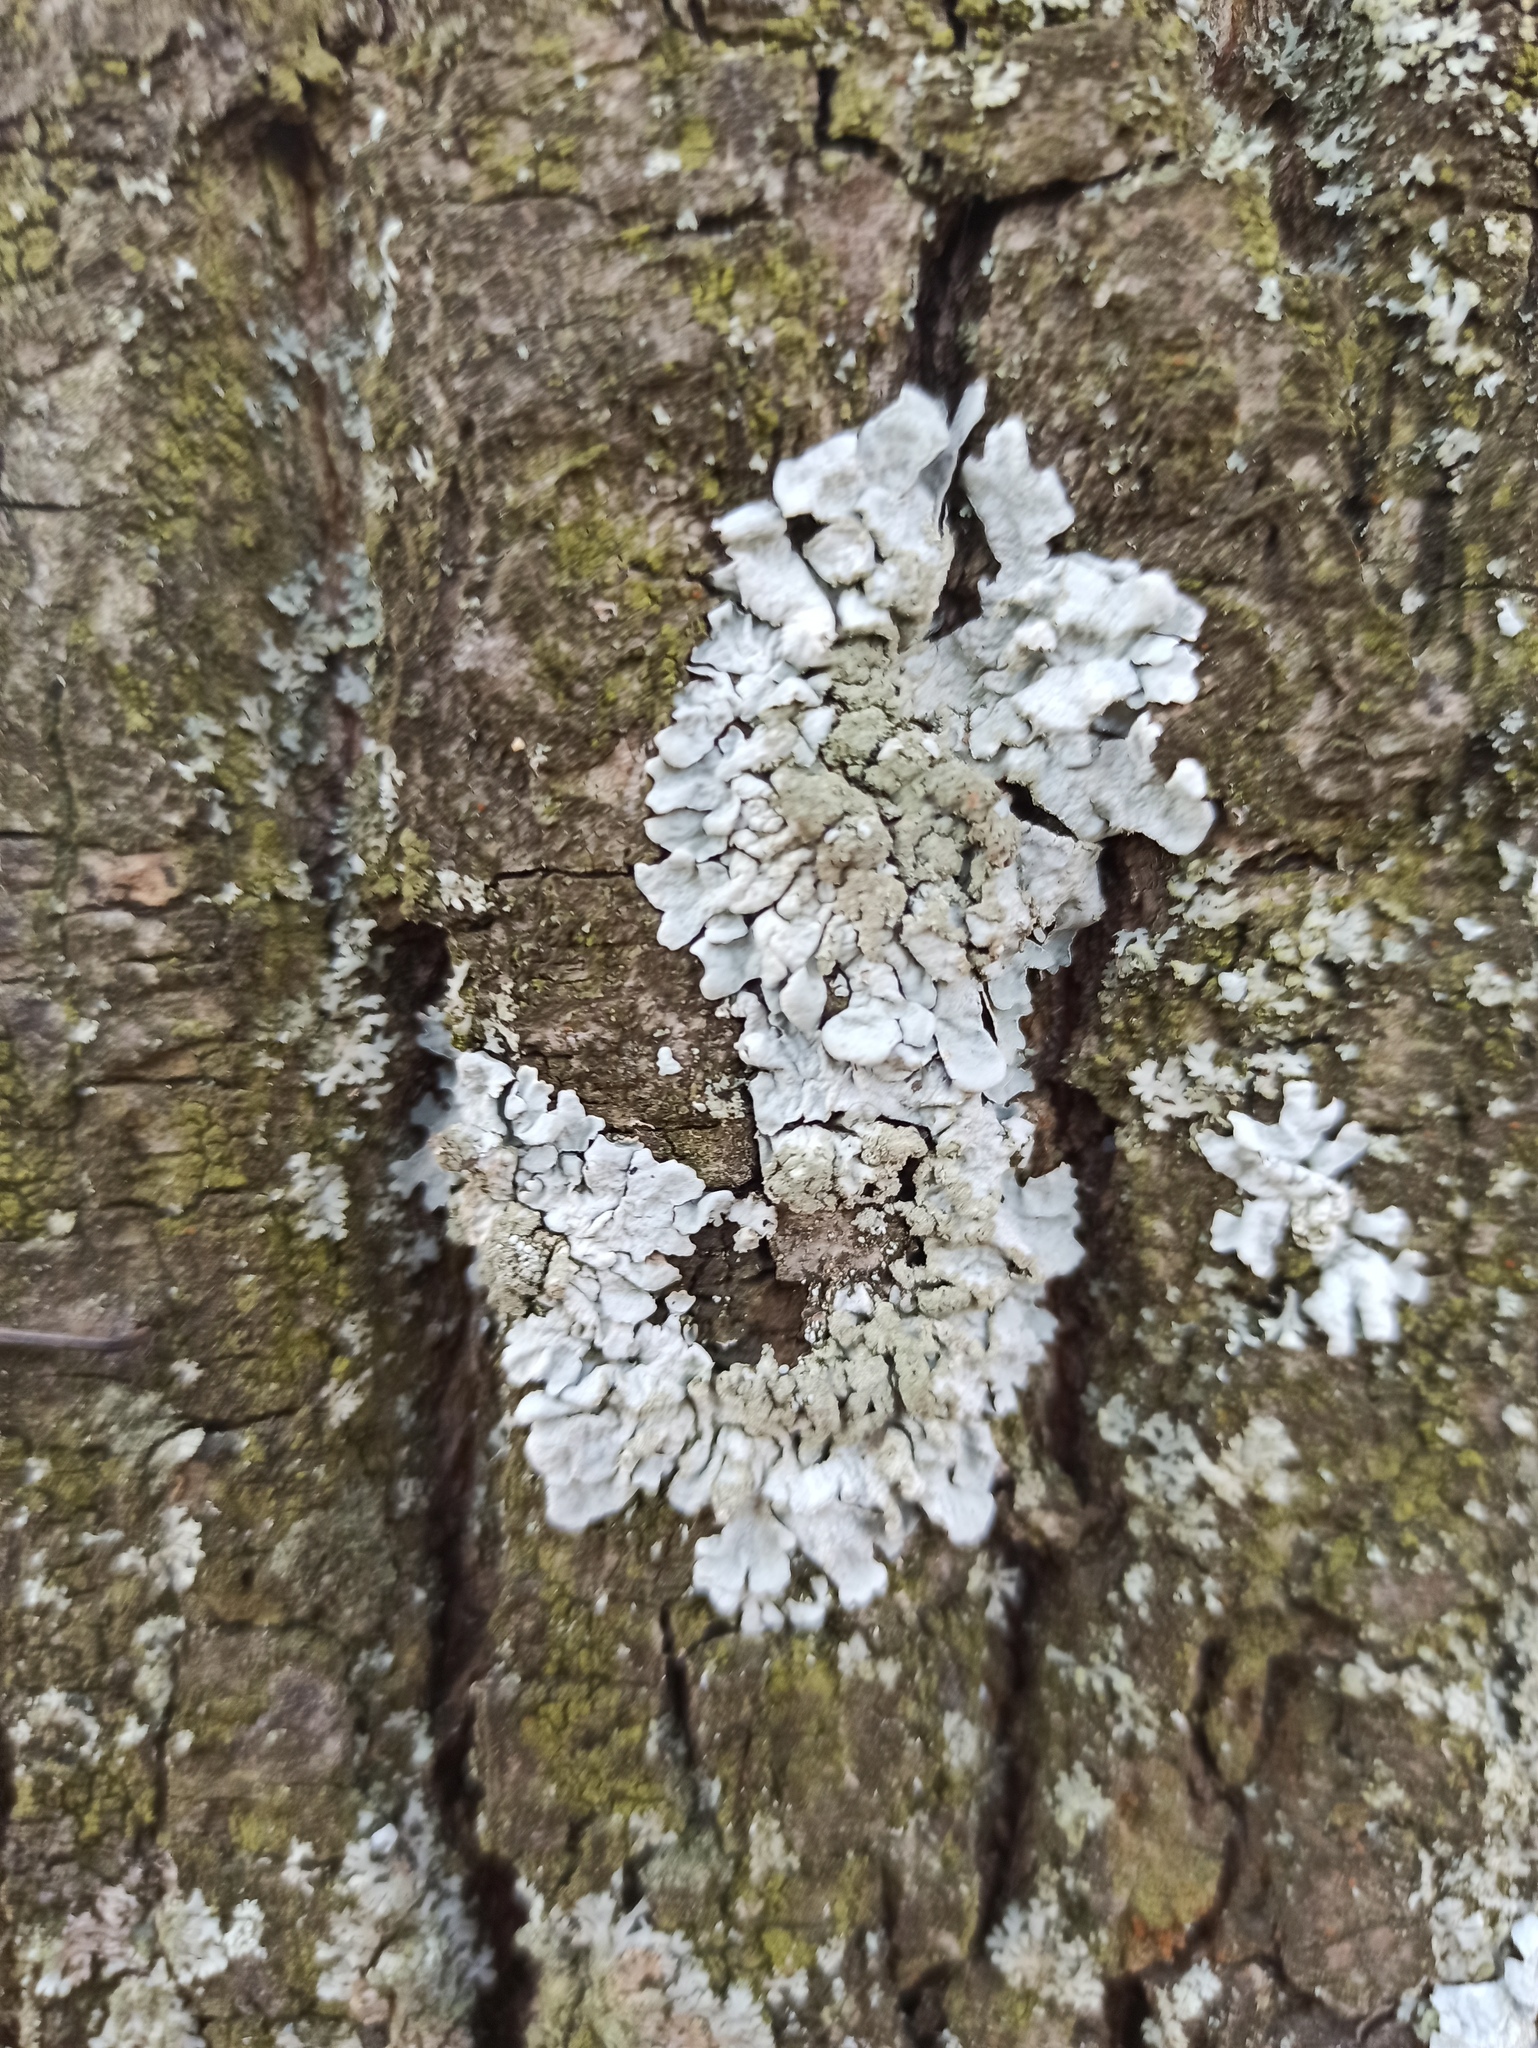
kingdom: Fungi
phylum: Ascomycota
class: Lecanoromycetes
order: Lecanorales
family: Parmeliaceae
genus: Parmelia
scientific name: Parmelia sulcata
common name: Netted shield lichen
